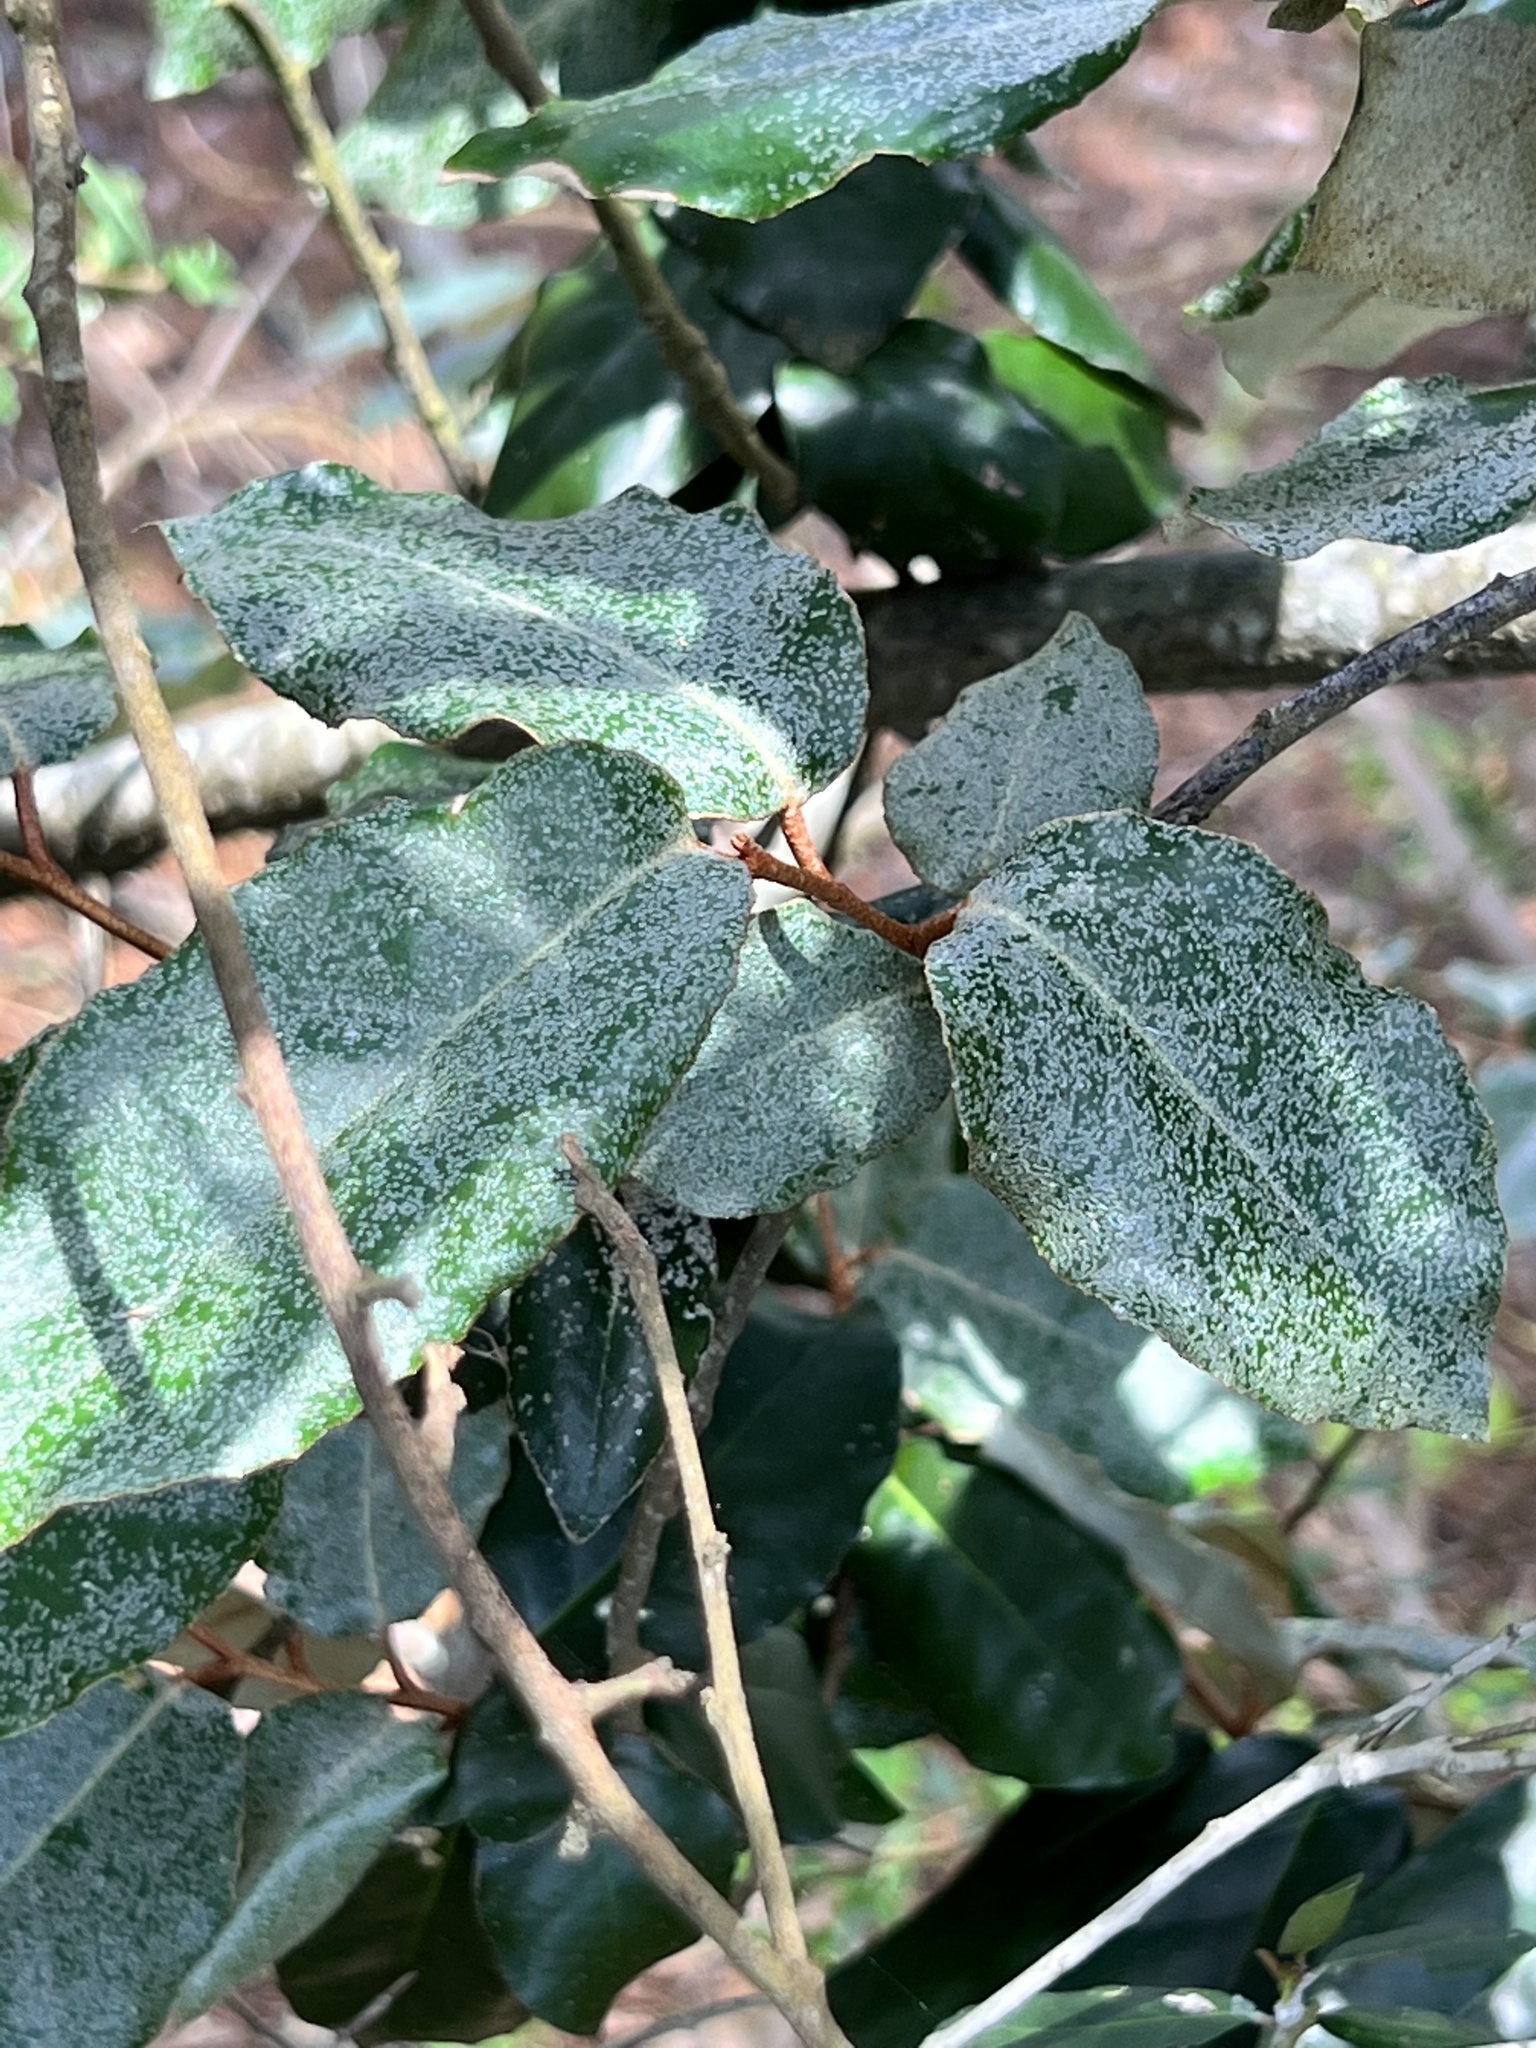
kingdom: Plantae
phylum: Tracheophyta
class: Magnoliopsida
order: Rosales
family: Elaeagnaceae
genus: Elaeagnus
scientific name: Elaeagnus pungens
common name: Spiny oleaster
